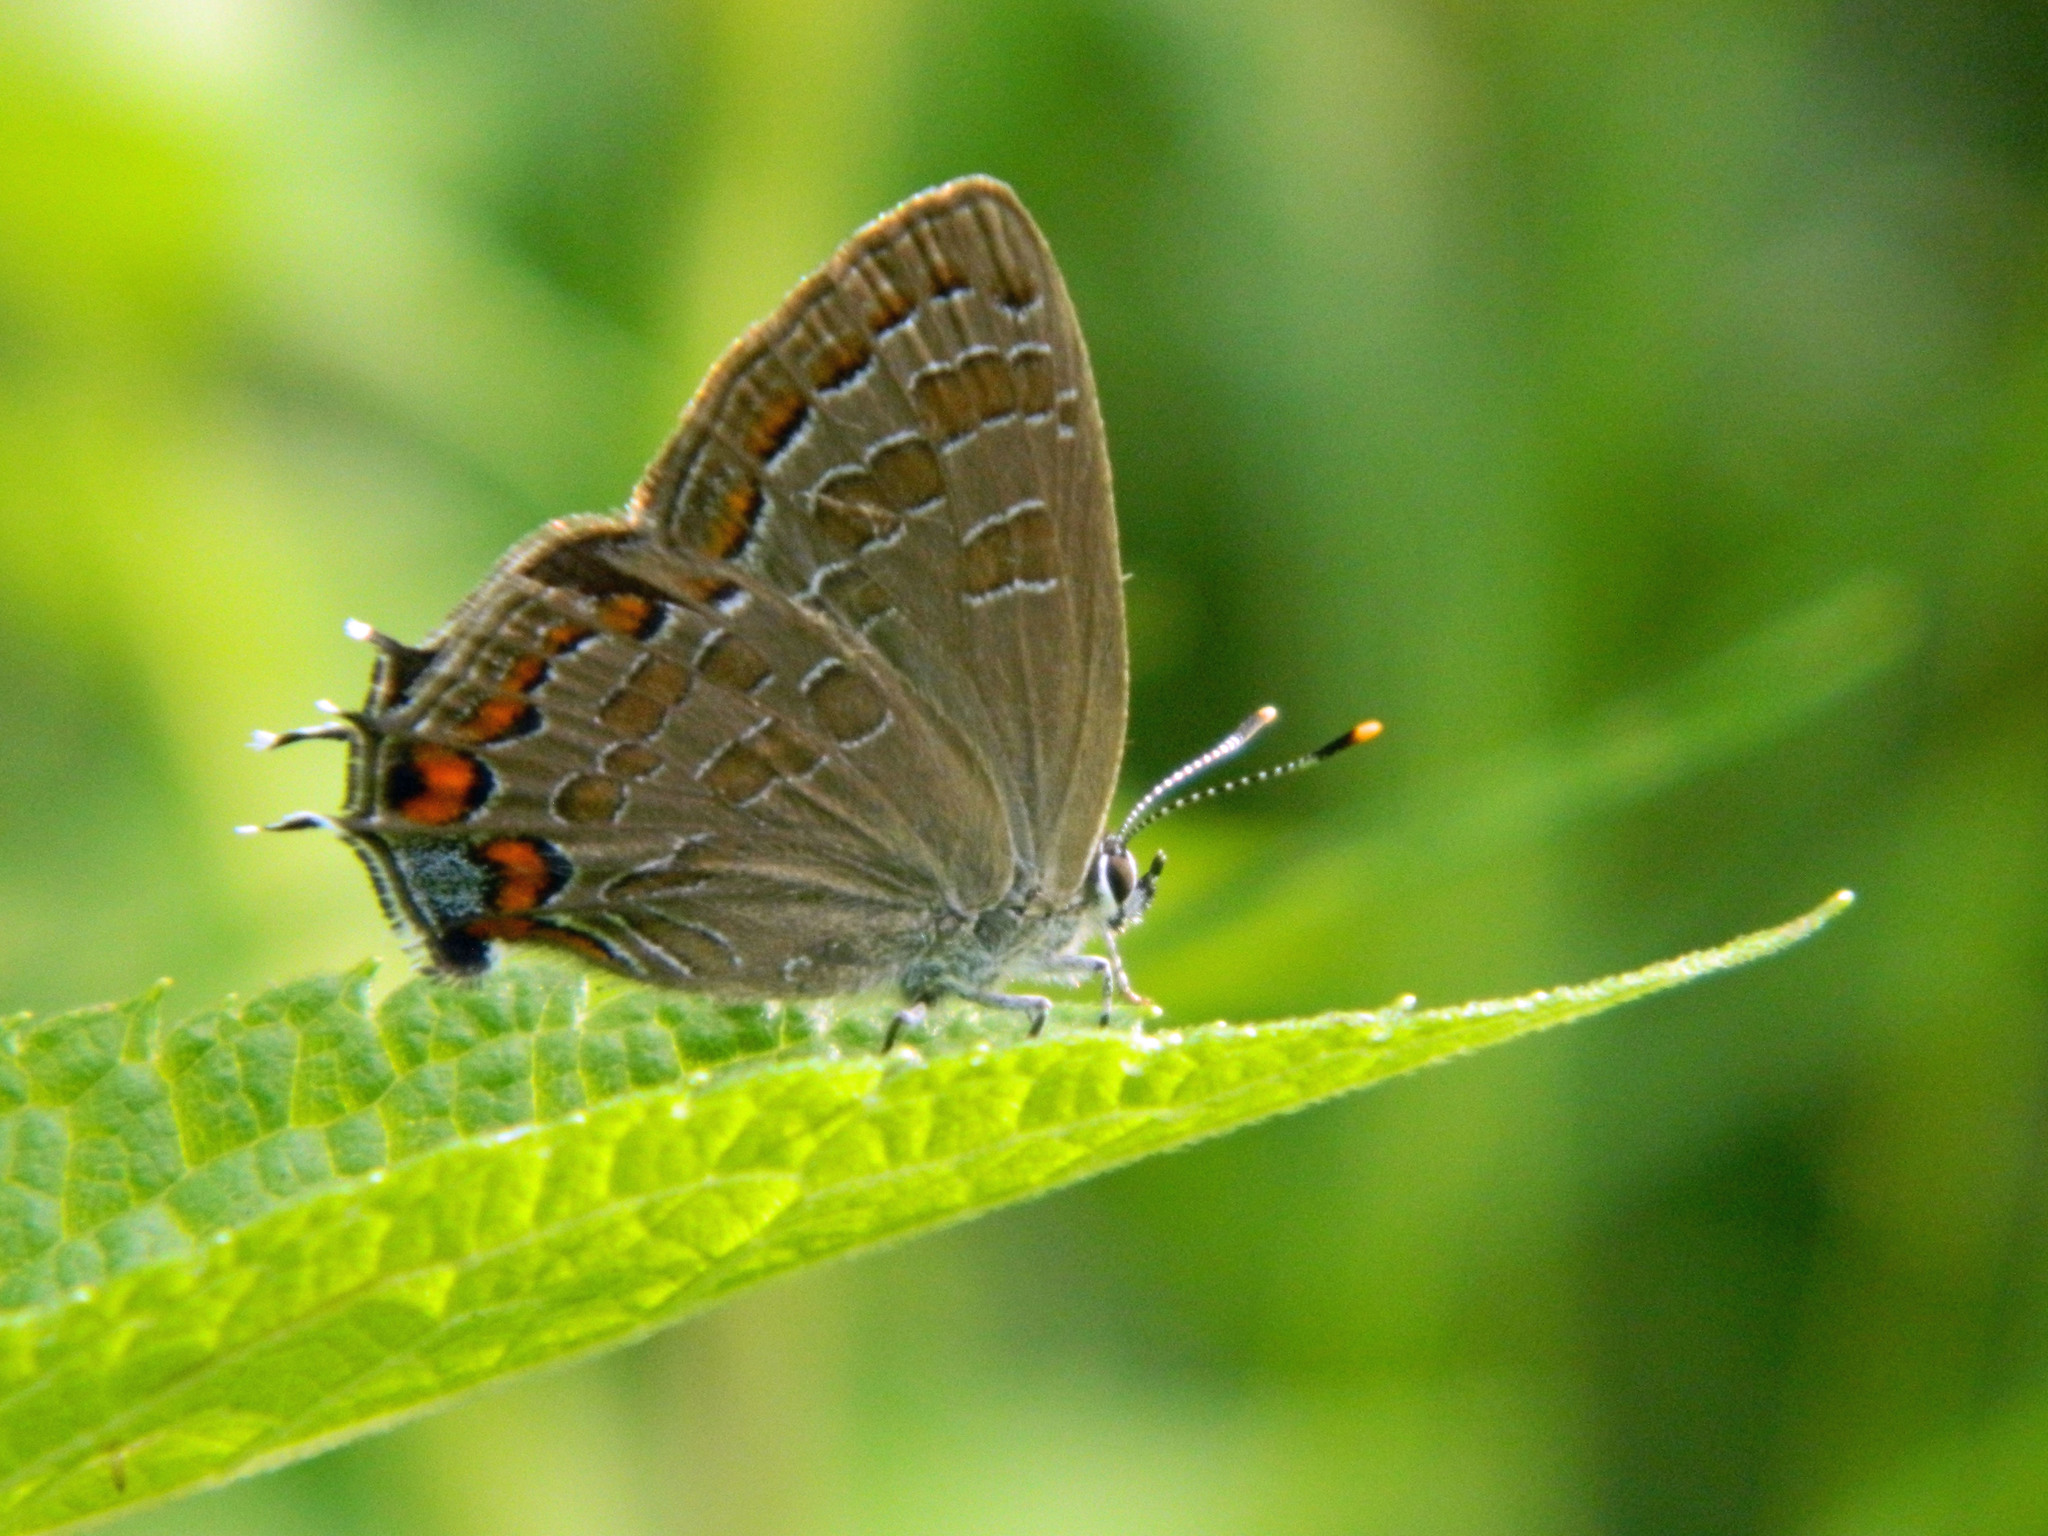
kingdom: Animalia
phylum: Arthropoda
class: Insecta
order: Lepidoptera
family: Lycaenidae
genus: Satyrium
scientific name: Satyrium liparops
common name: Striped hairstreak
